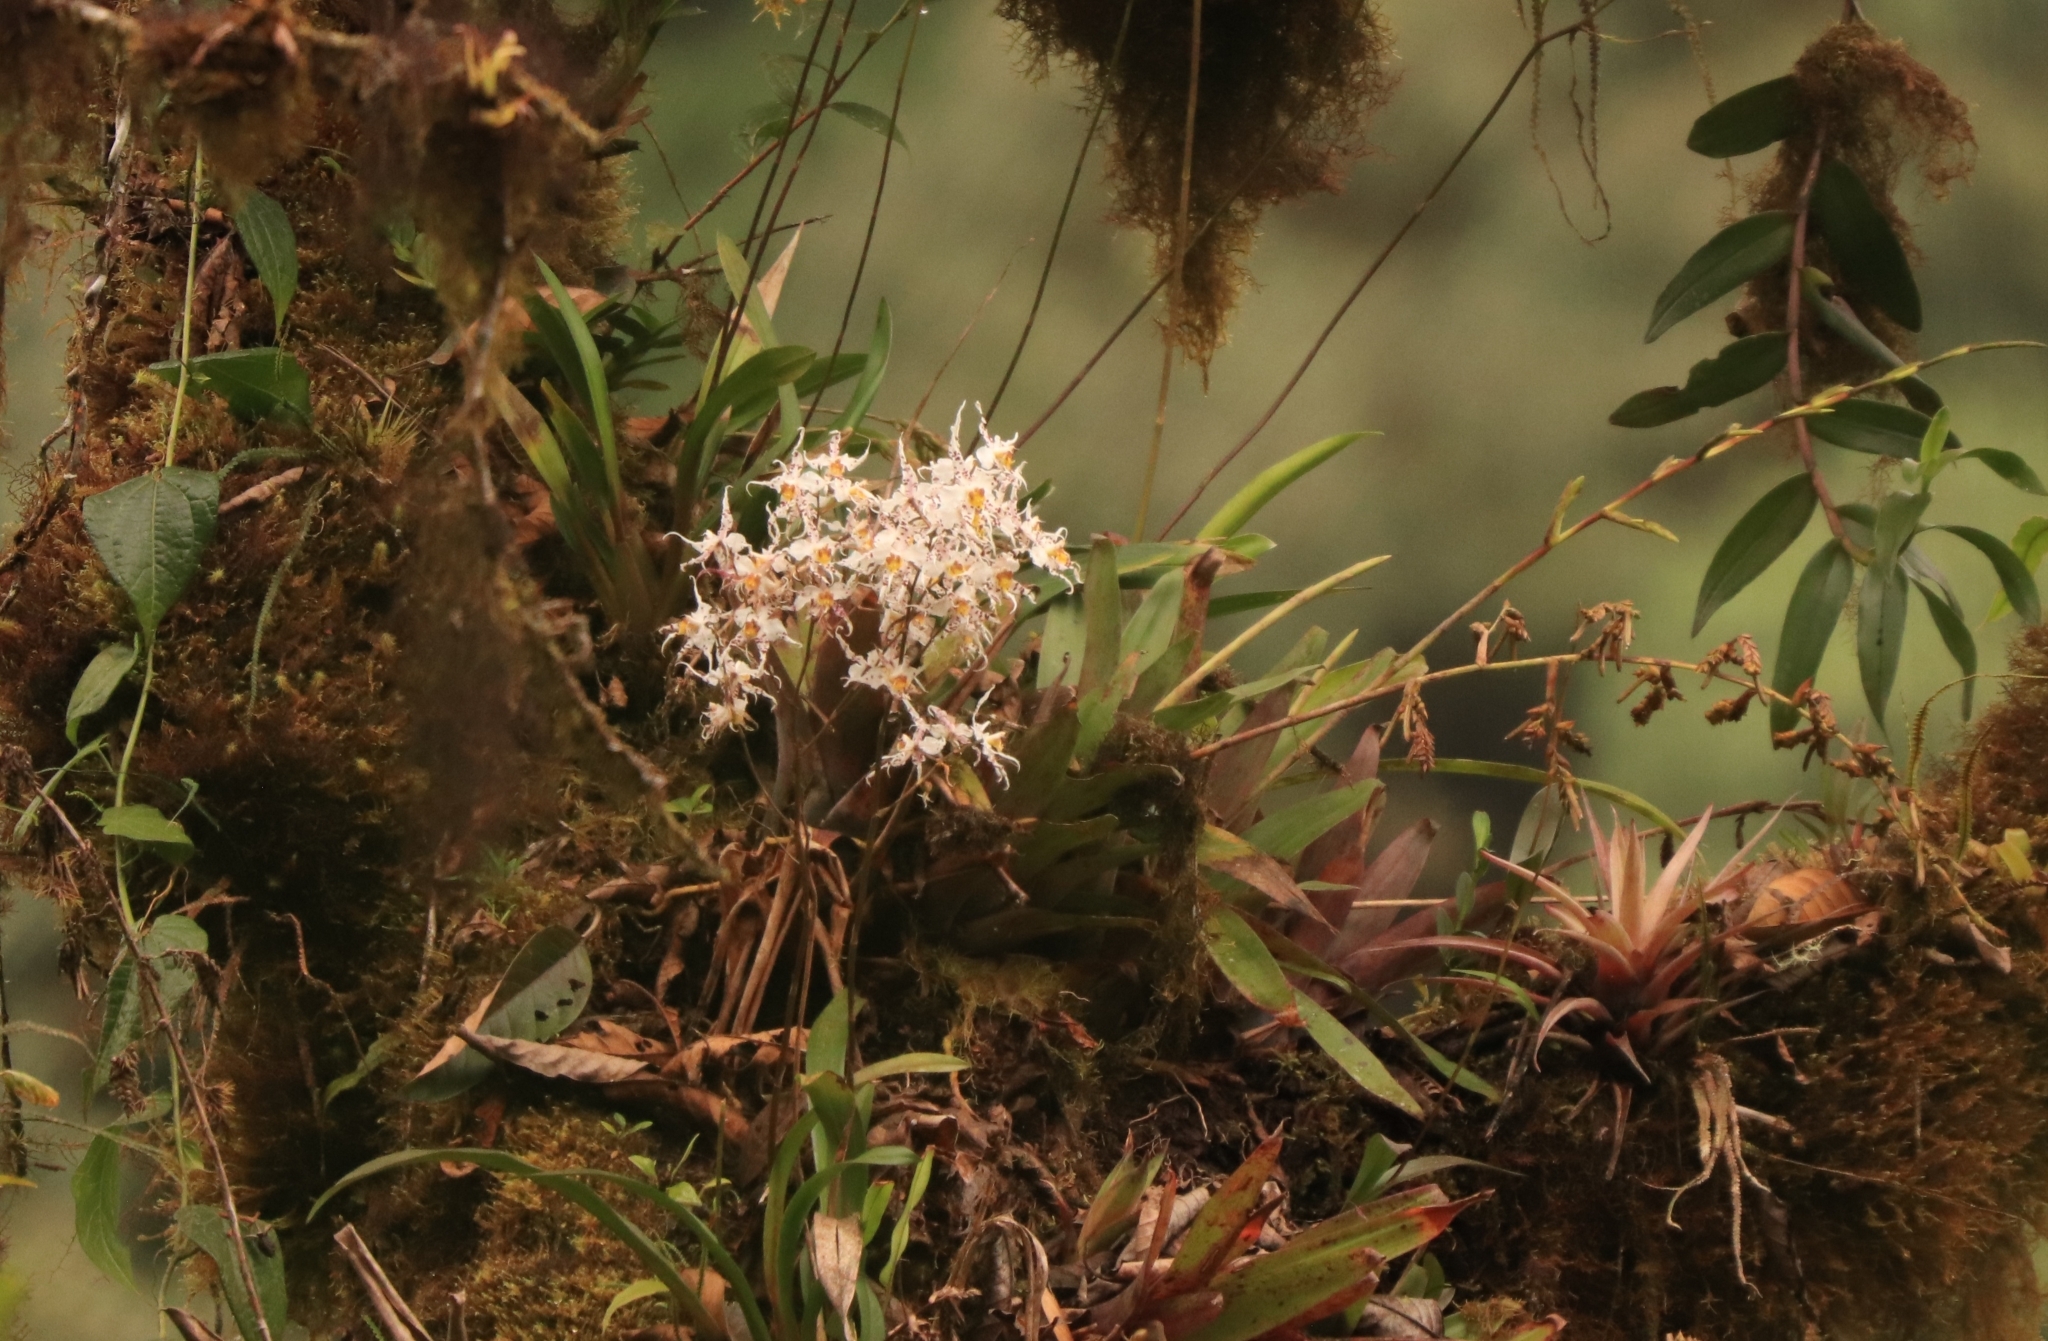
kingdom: Plantae
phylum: Tracheophyta
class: Liliopsida
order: Asparagales
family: Orchidaceae
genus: Oncidium
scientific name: Oncidium cirrhosum
